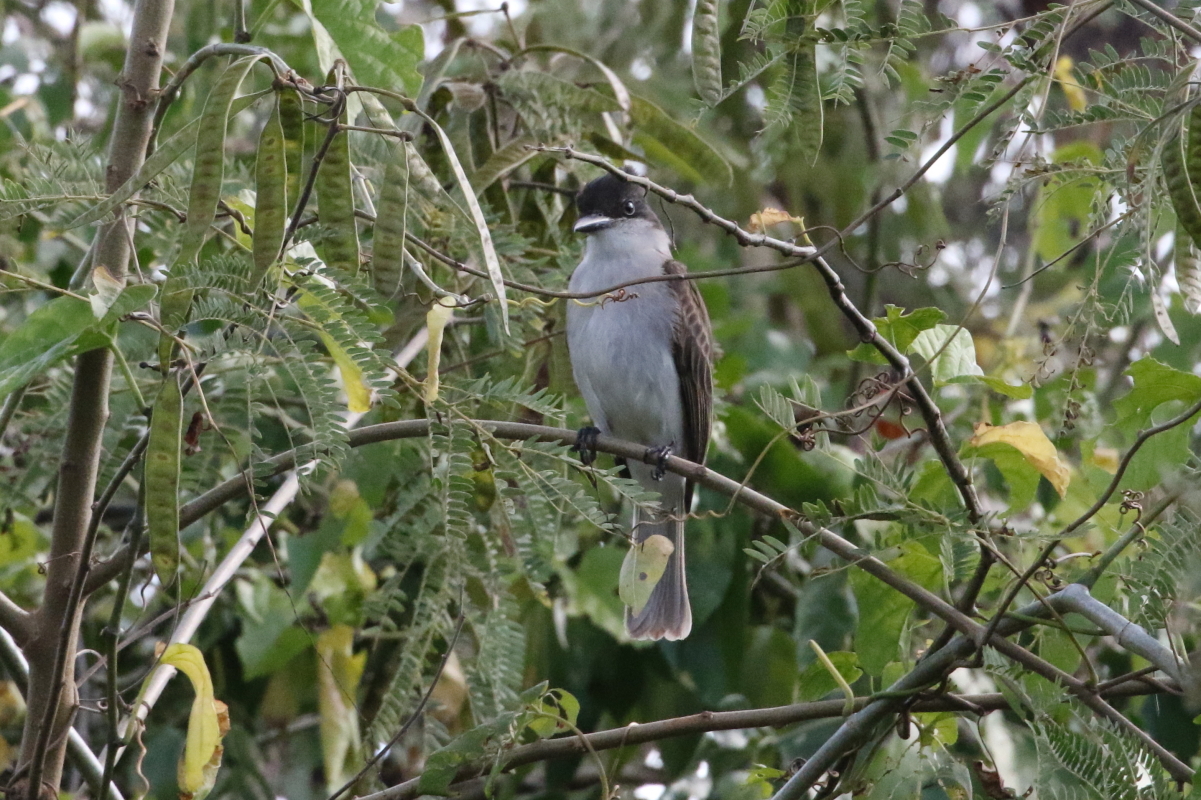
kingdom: Animalia
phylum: Chordata
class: Aves
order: Passeriformes
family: Tyrannidae
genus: Tyrannus
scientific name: Tyrannus caudifasciatus
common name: Loggerhead kingbird
